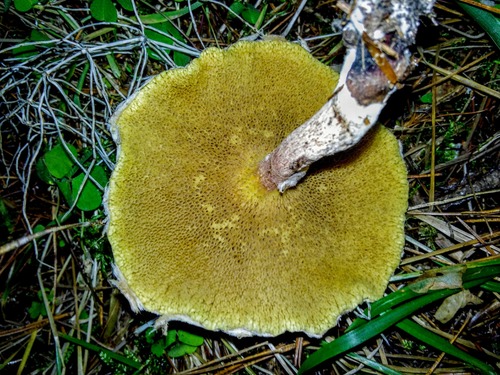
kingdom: Fungi
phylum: Basidiomycota
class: Agaricomycetes
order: Boletales
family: Suillaceae
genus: Suillus
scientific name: Suillus americanus
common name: Chicken fat mushroom
